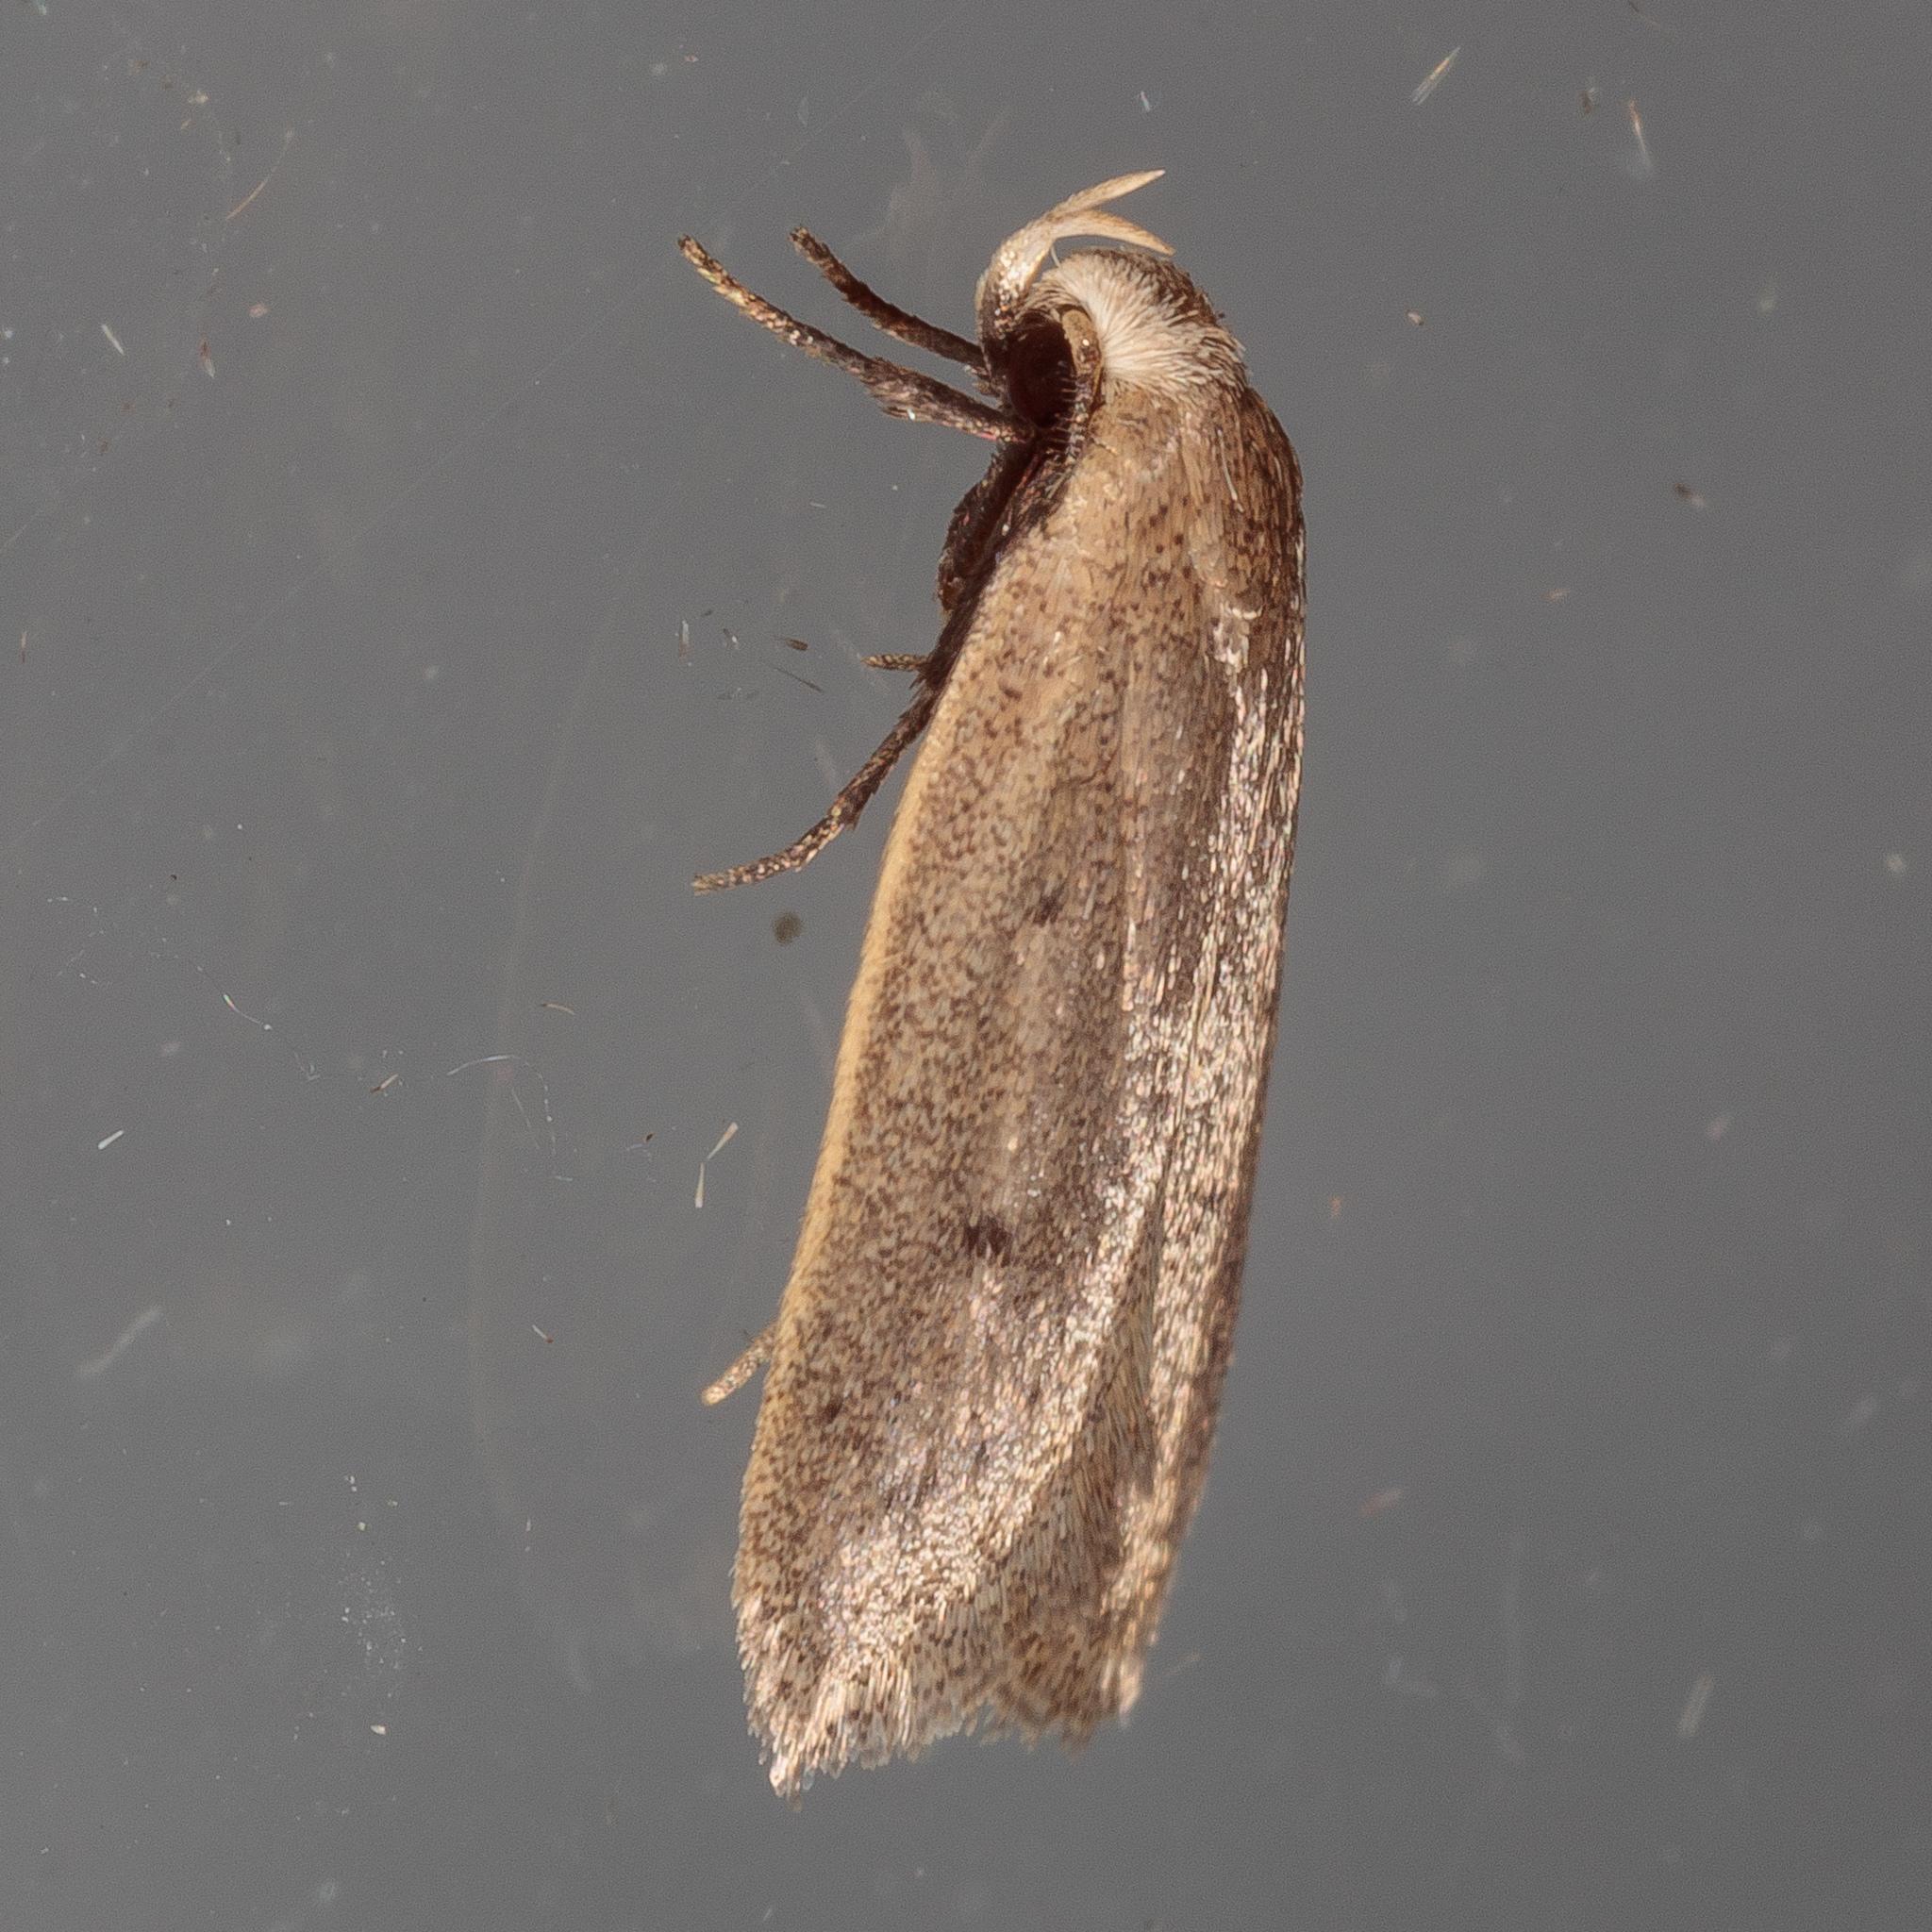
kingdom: Animalia
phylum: Arthropoda
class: Insecta
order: Lepidoptera
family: Oecophoridae
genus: Inga
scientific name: Inga obscuromaculella
